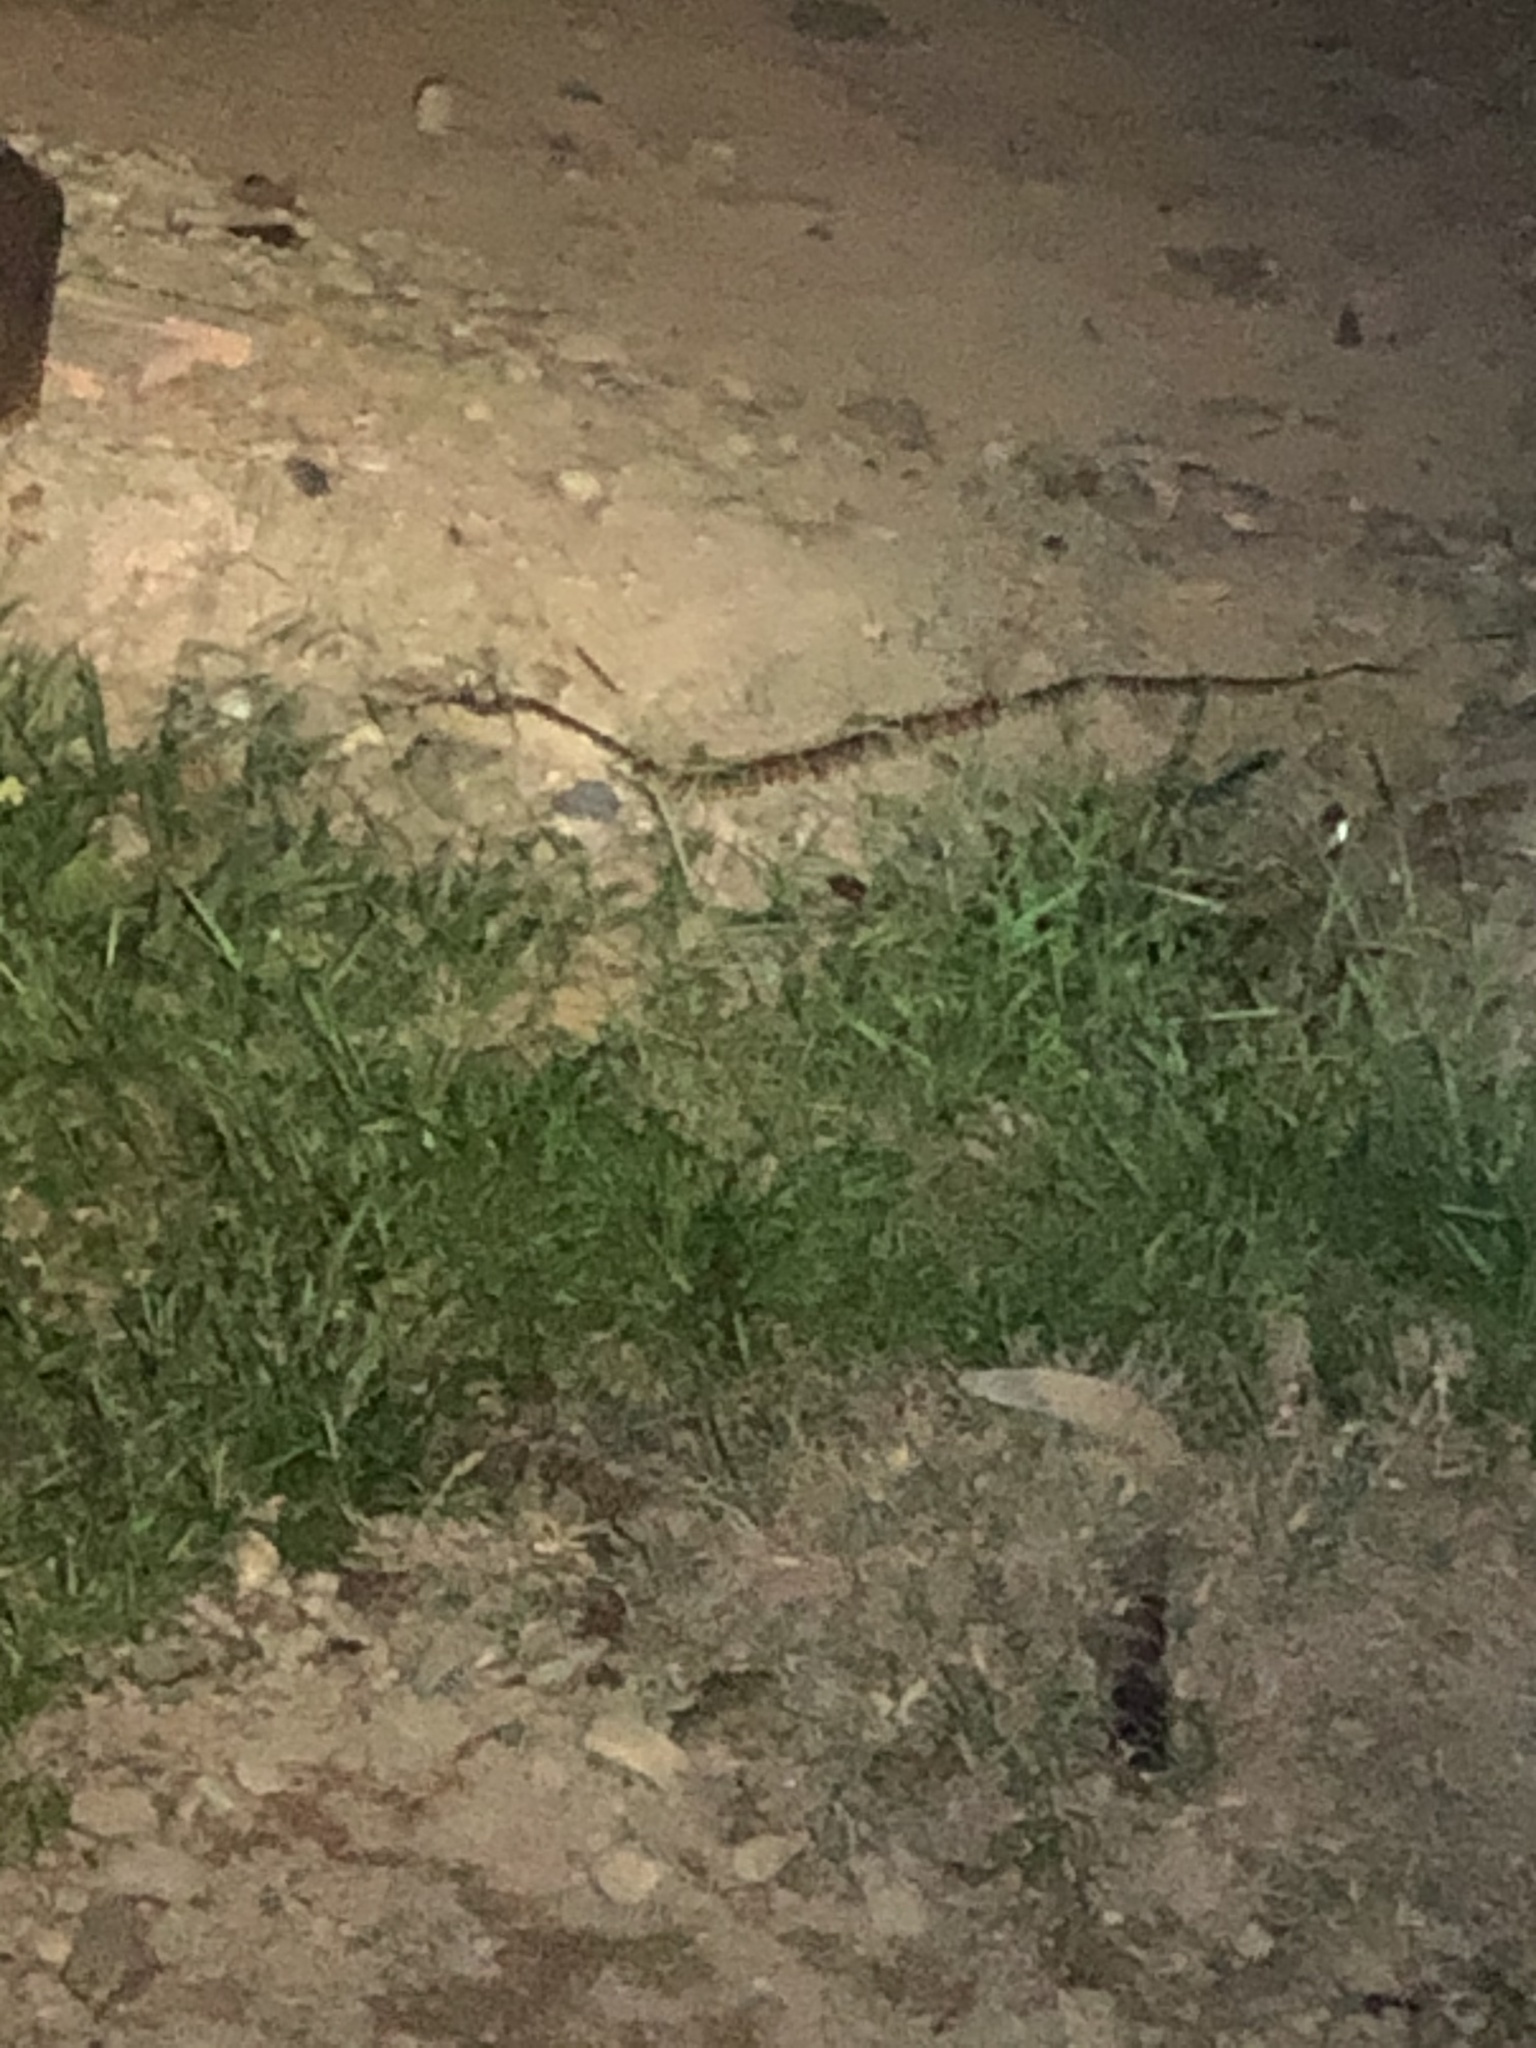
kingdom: Animalia
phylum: Chordata
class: Squamata
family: Viperidae
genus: Bothrops
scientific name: Bothrops atrox
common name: Common lancehead
